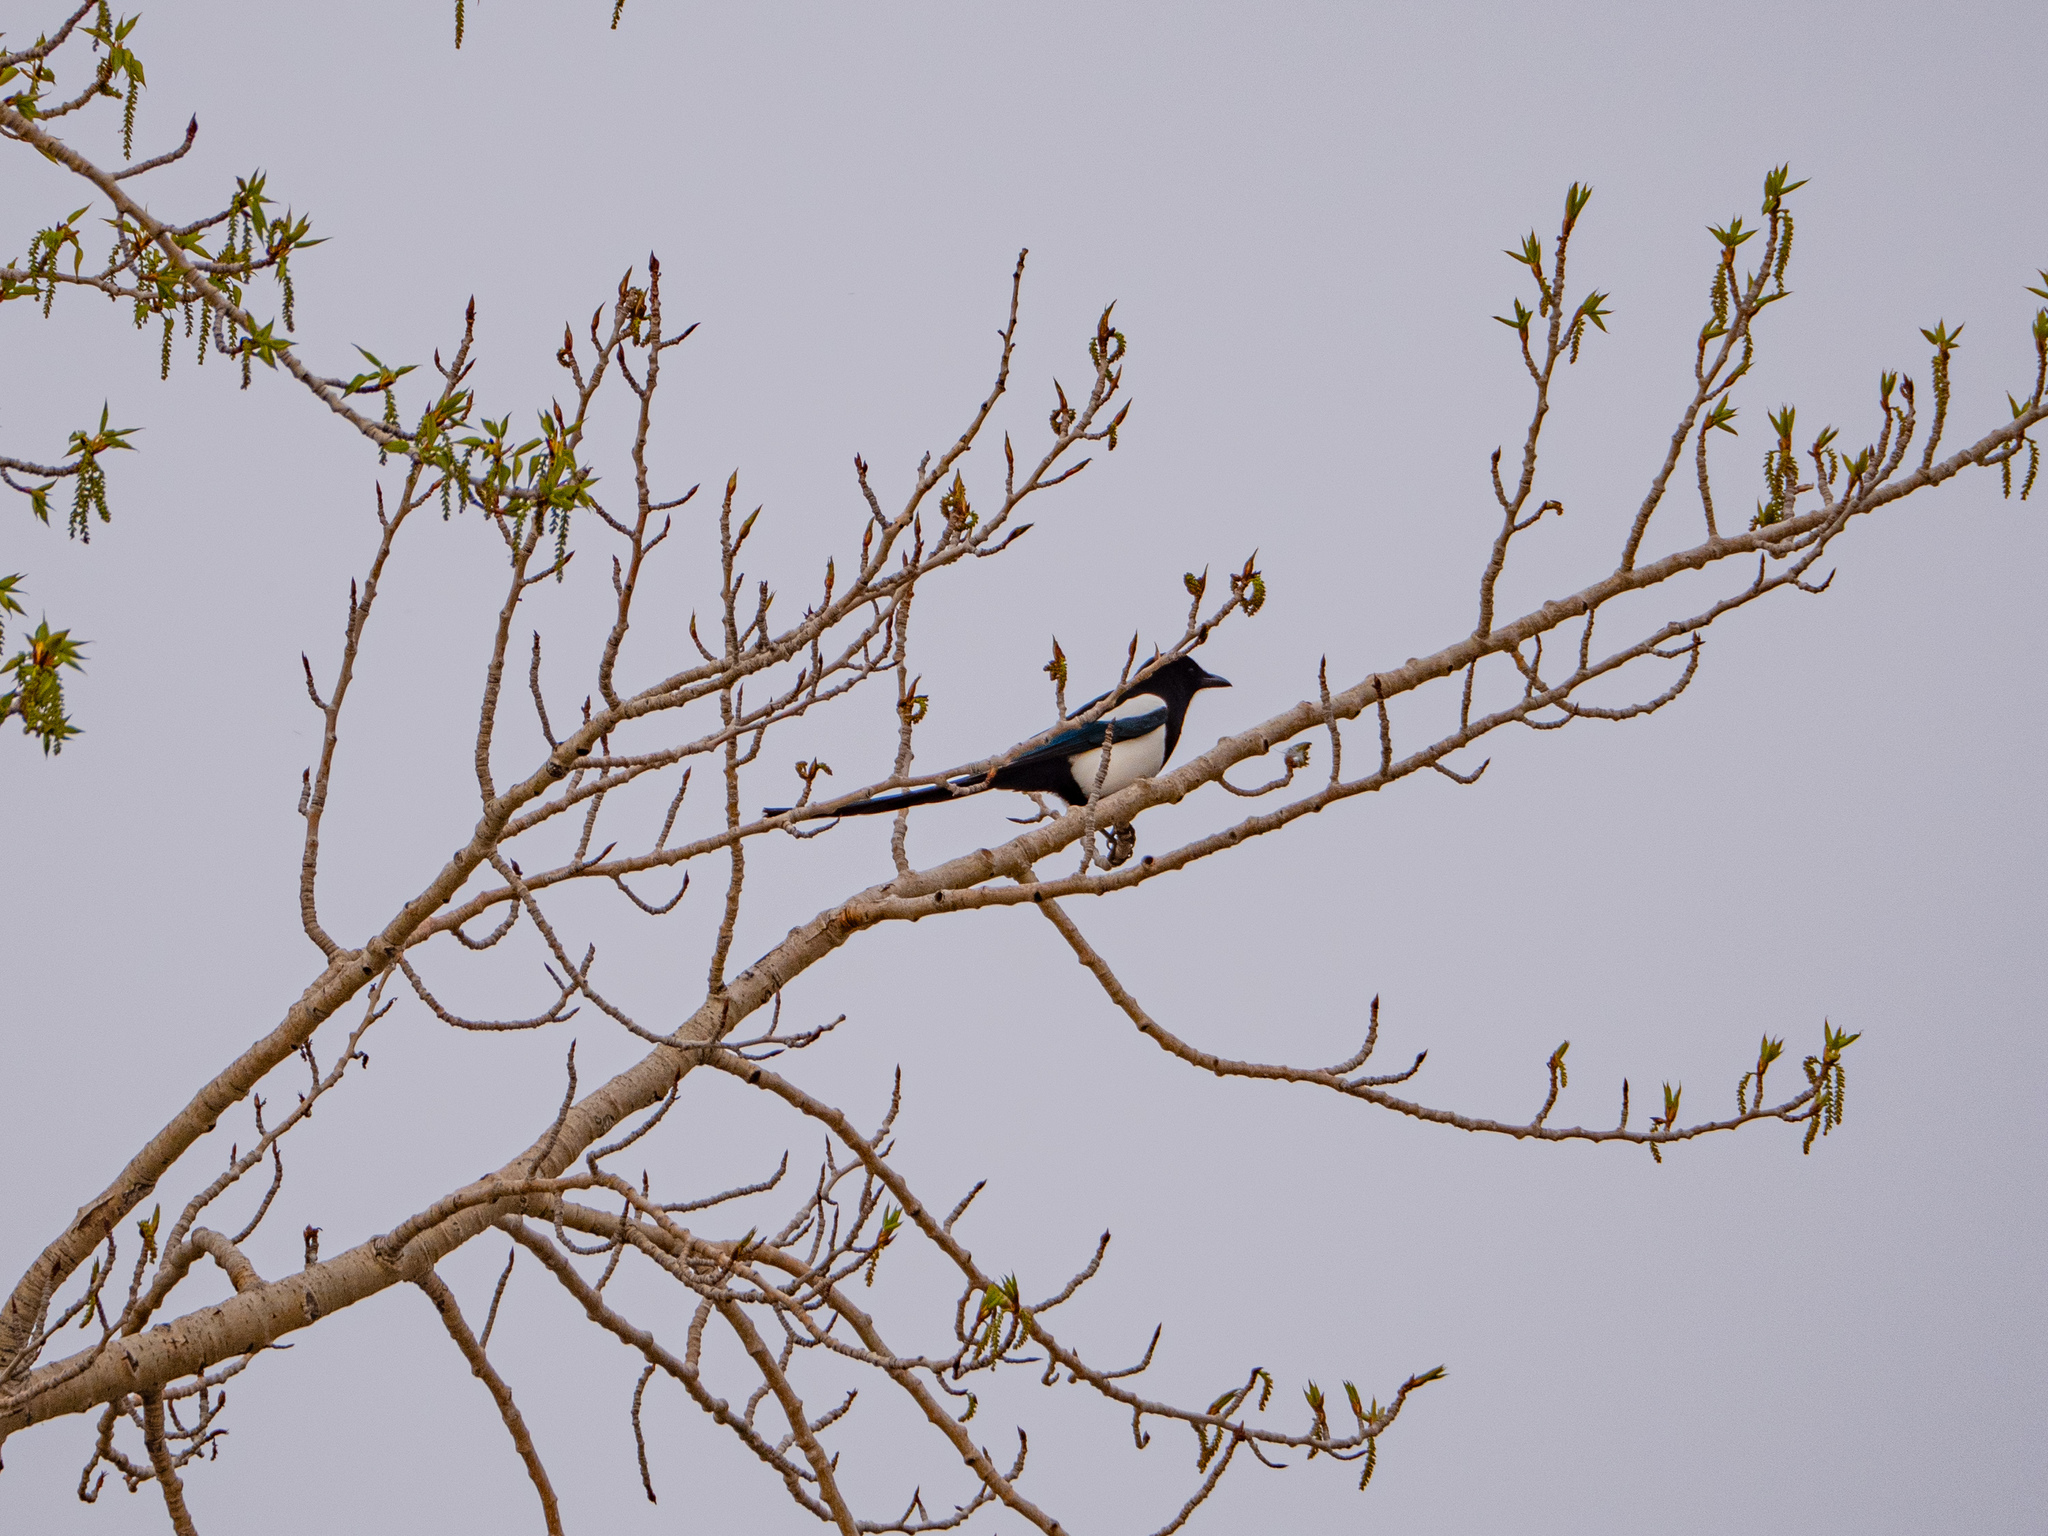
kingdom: Animalia
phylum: Chordata
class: Aves
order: Passeriformes
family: Corvidae
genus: Pica
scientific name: Pica hudsonia
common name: Black-billed magpie
